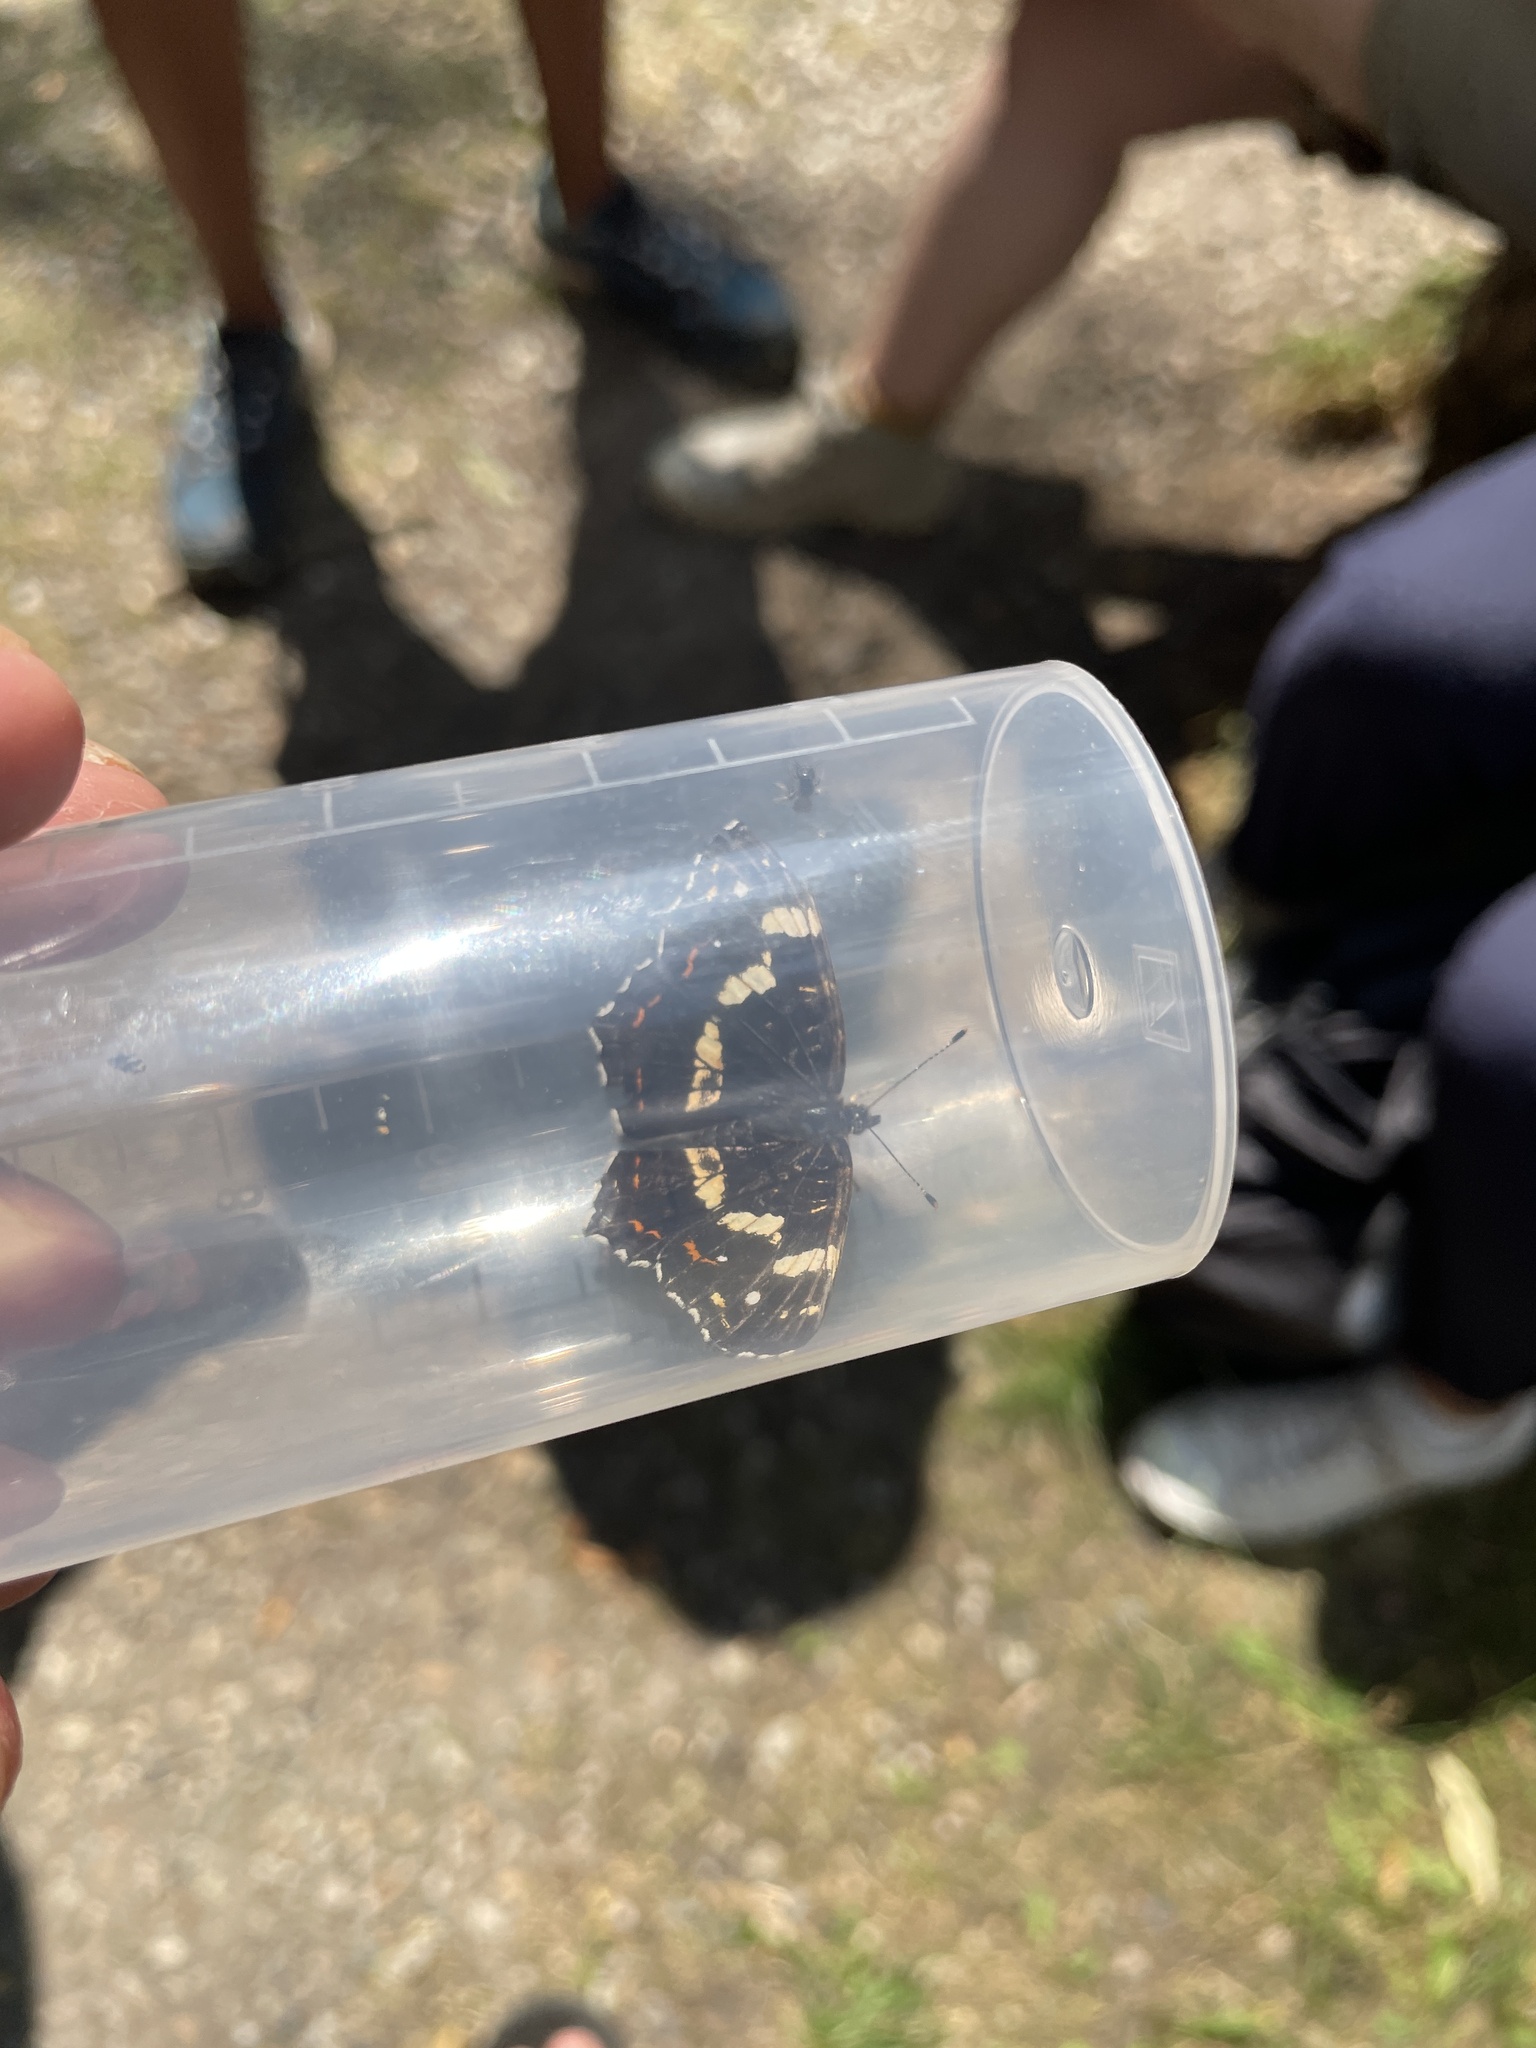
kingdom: Animalia
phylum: Arthropoda
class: Insecta
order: Lepidoptera
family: Nymphalidae
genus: Araschnia
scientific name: Araschnia levana
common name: Map butterfly
